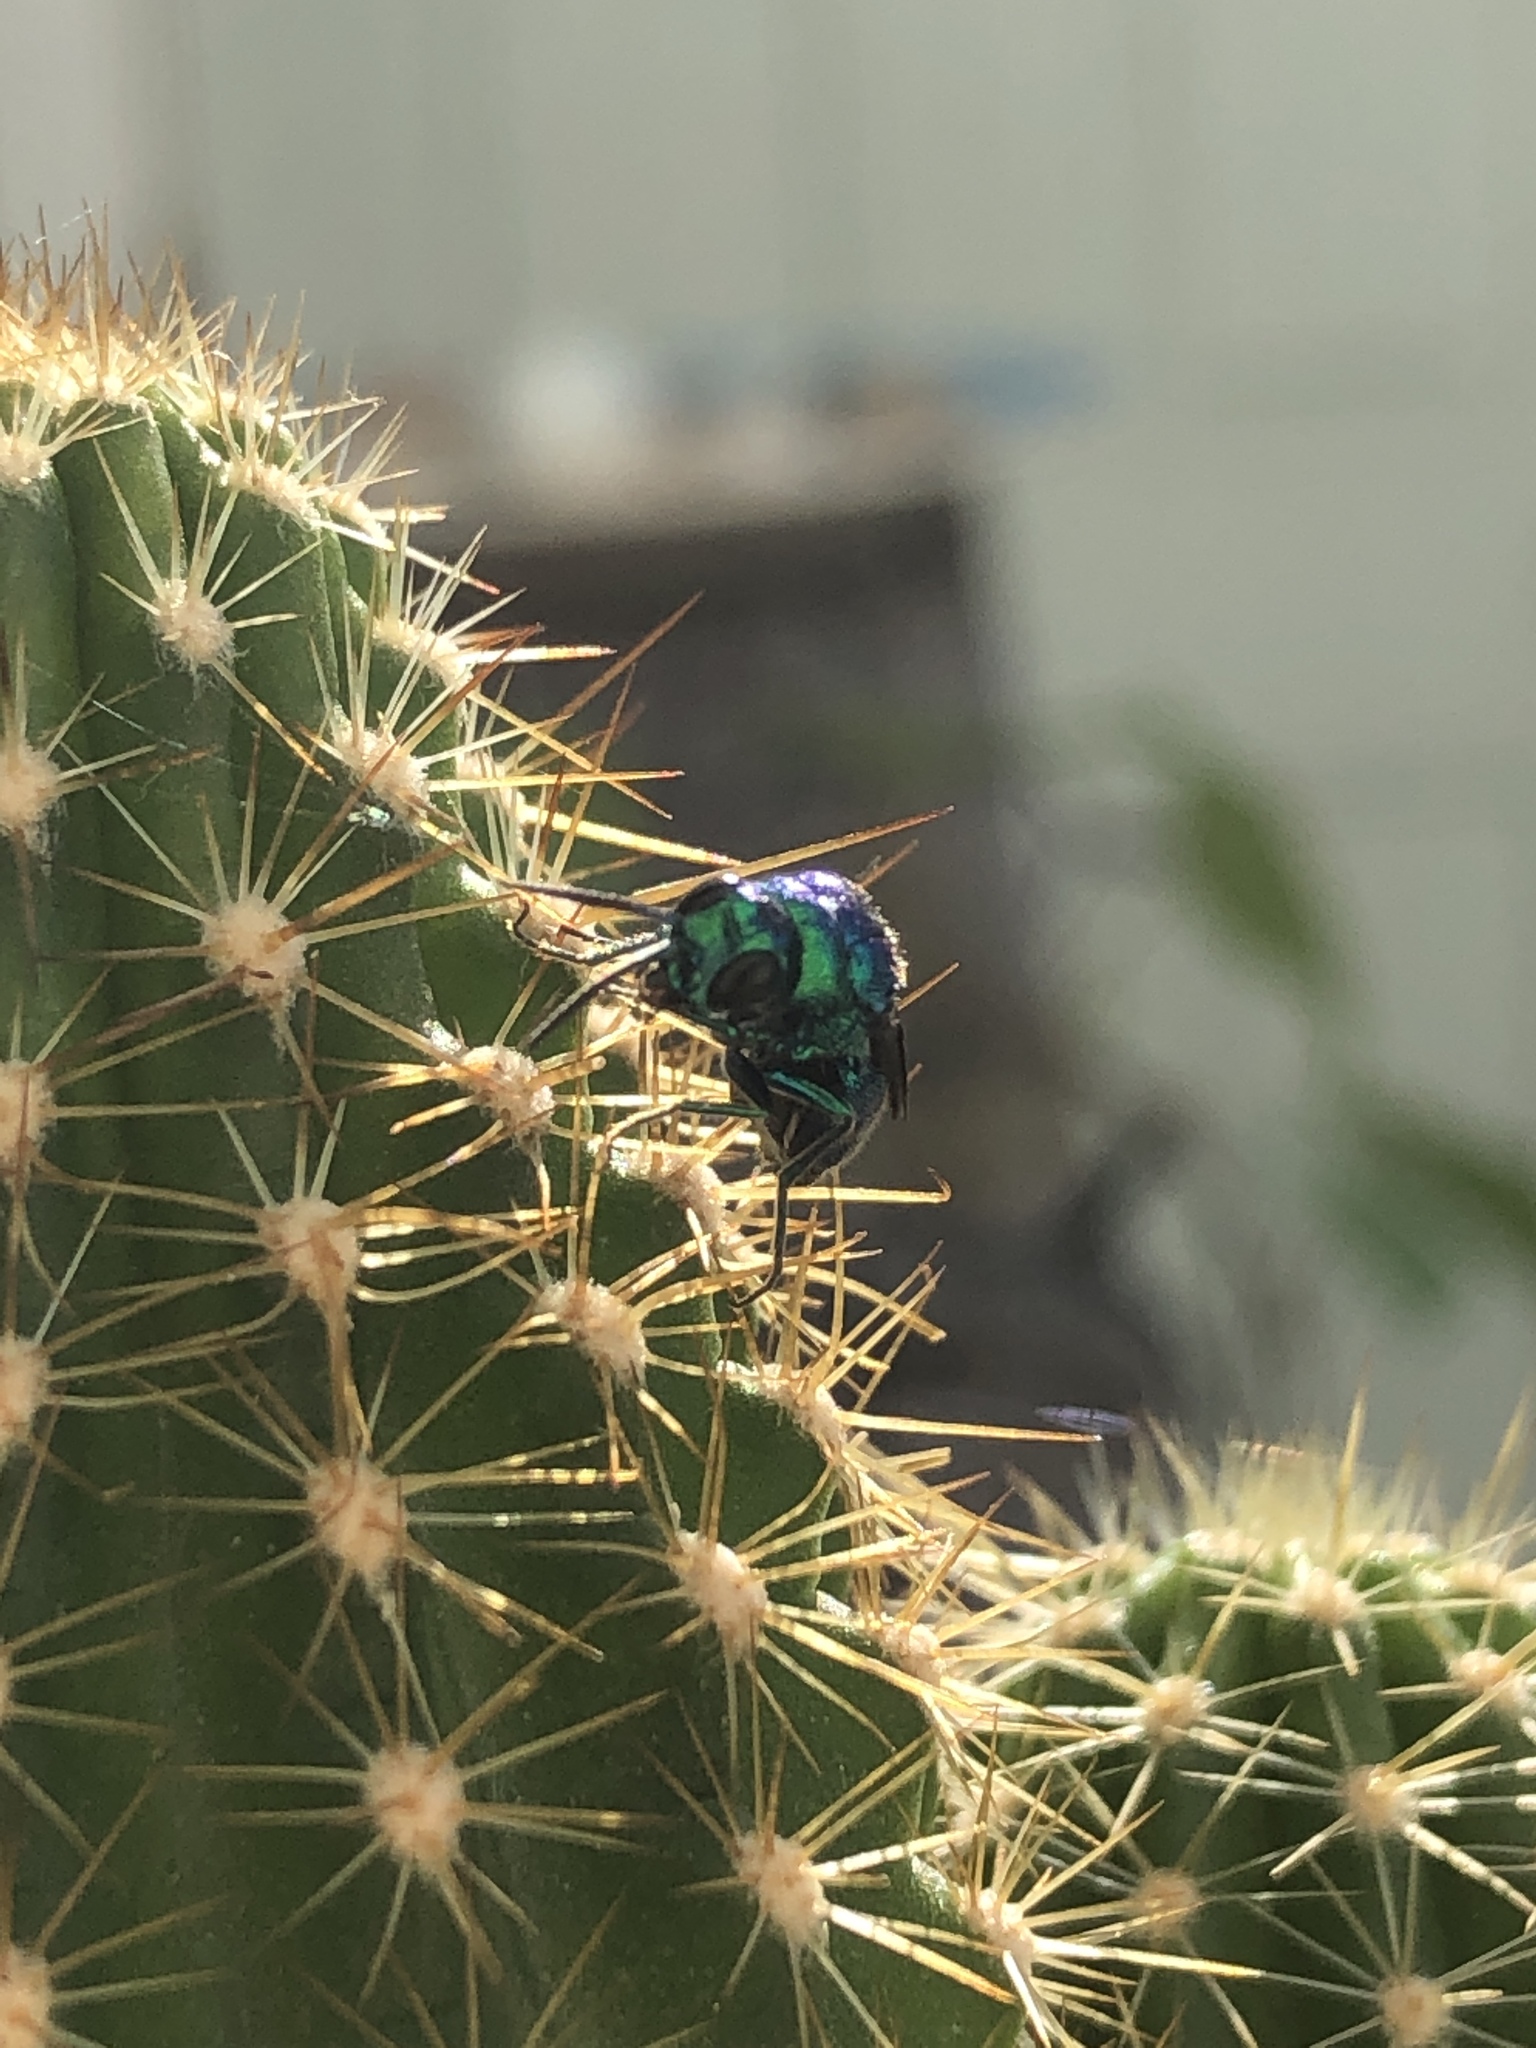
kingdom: Animalia
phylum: Arthropoda
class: Insecta
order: Hymenoptera
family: Chrysididae
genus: Chrysis
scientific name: Chrysis angolensis
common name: Cuckoo wasp
